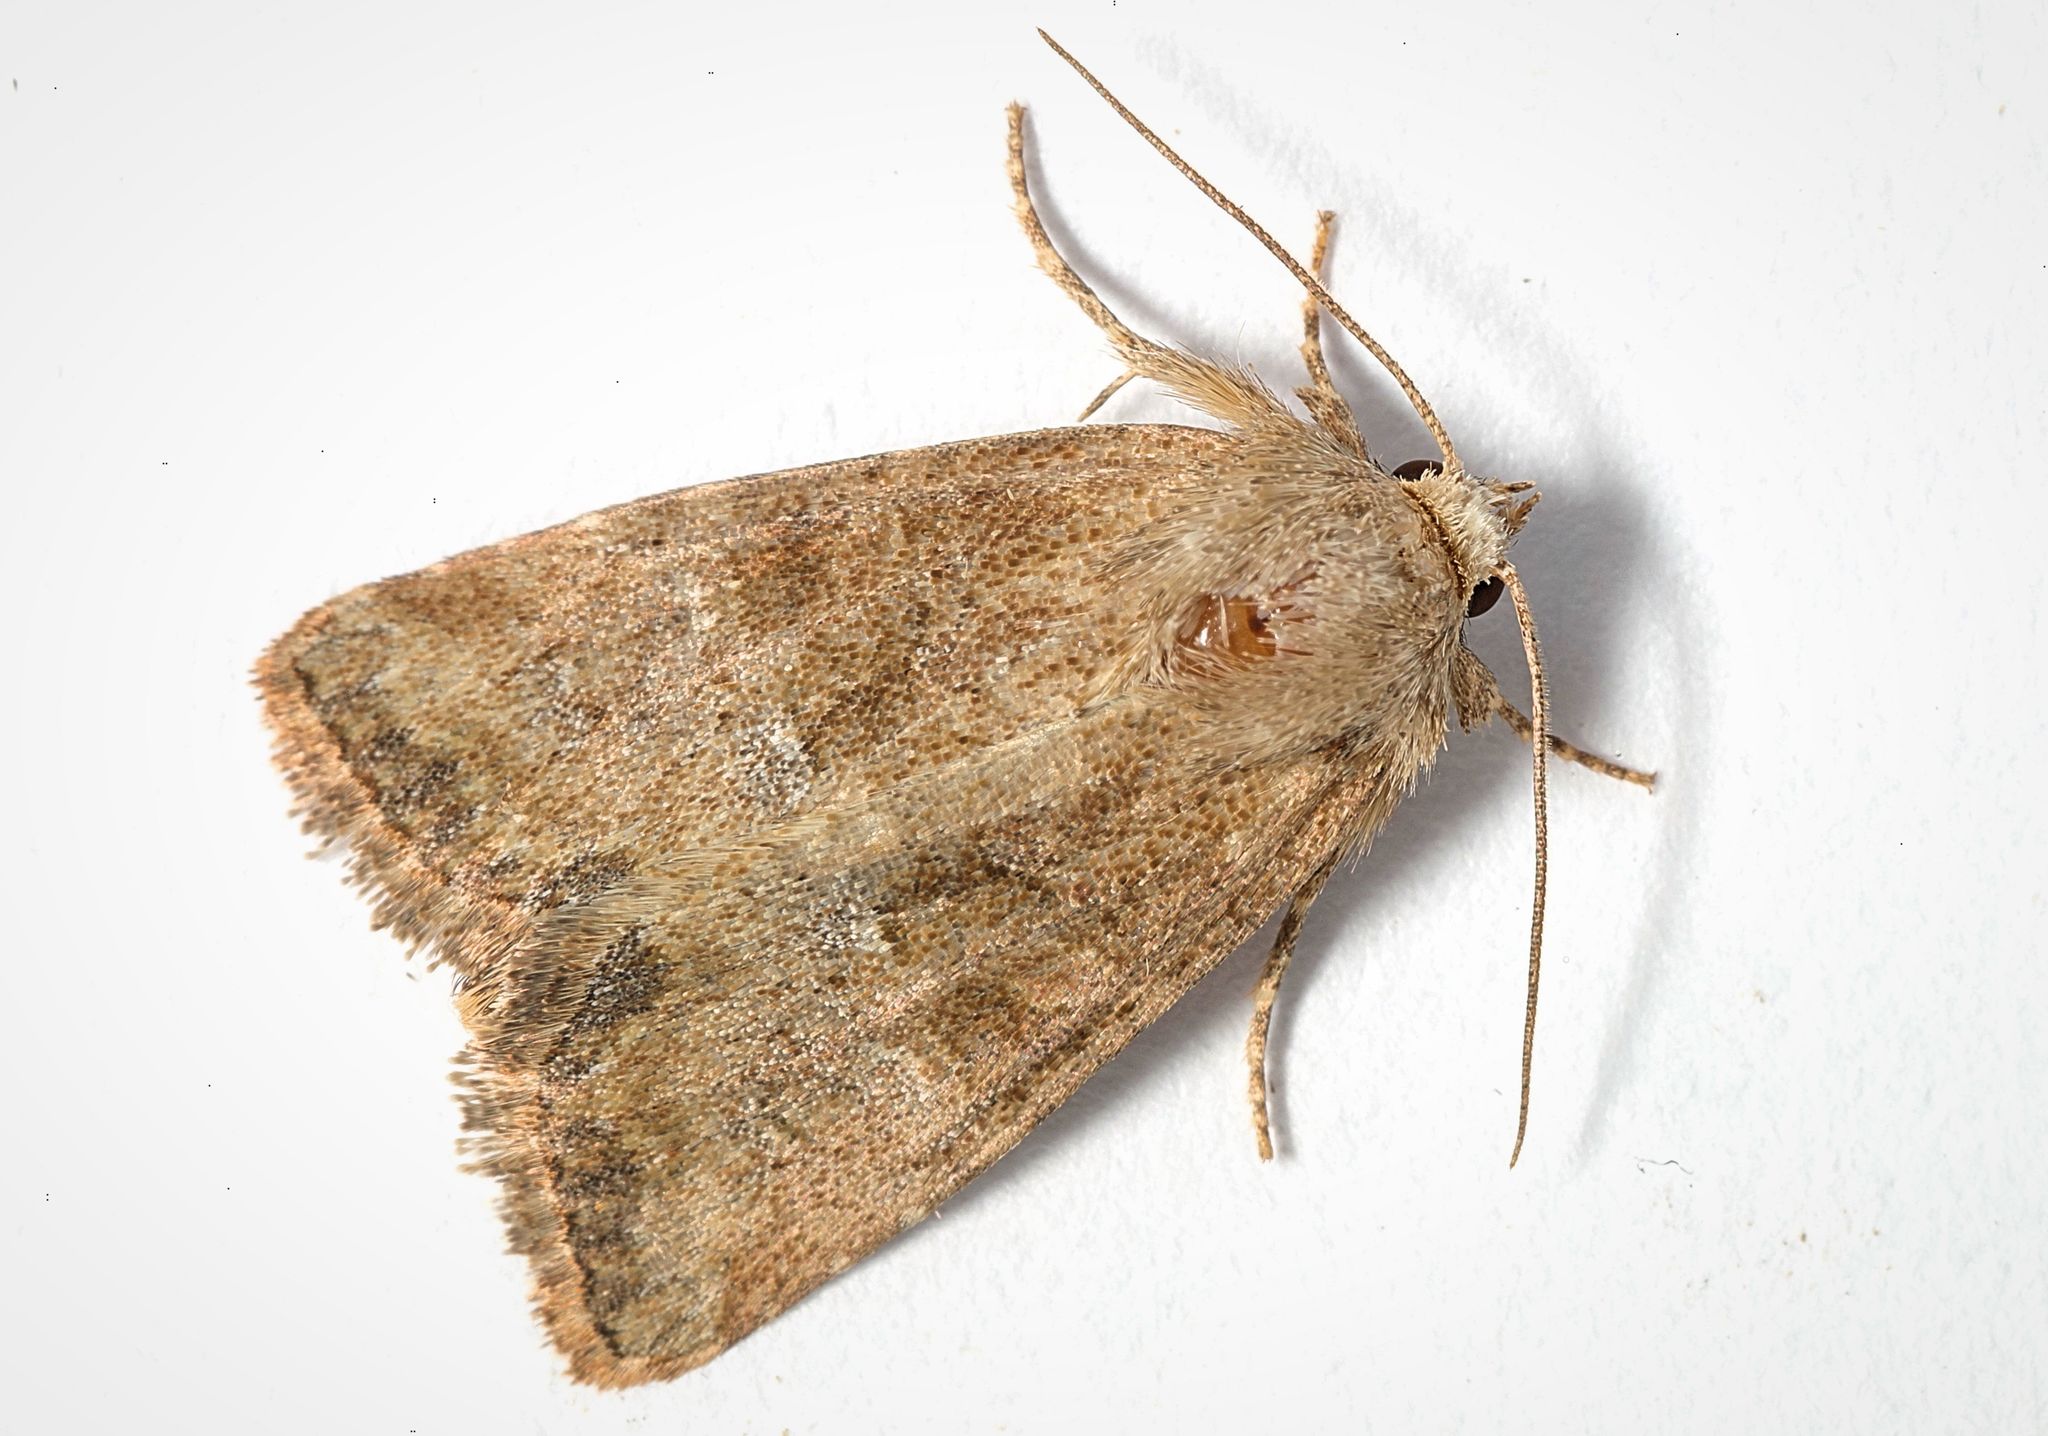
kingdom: Animalia
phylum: Arthropoda
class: Insecta
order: Lepidoptera
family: Noctuidae
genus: Mesoligia
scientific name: Mesoligia furuncula
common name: Cloaked minor
